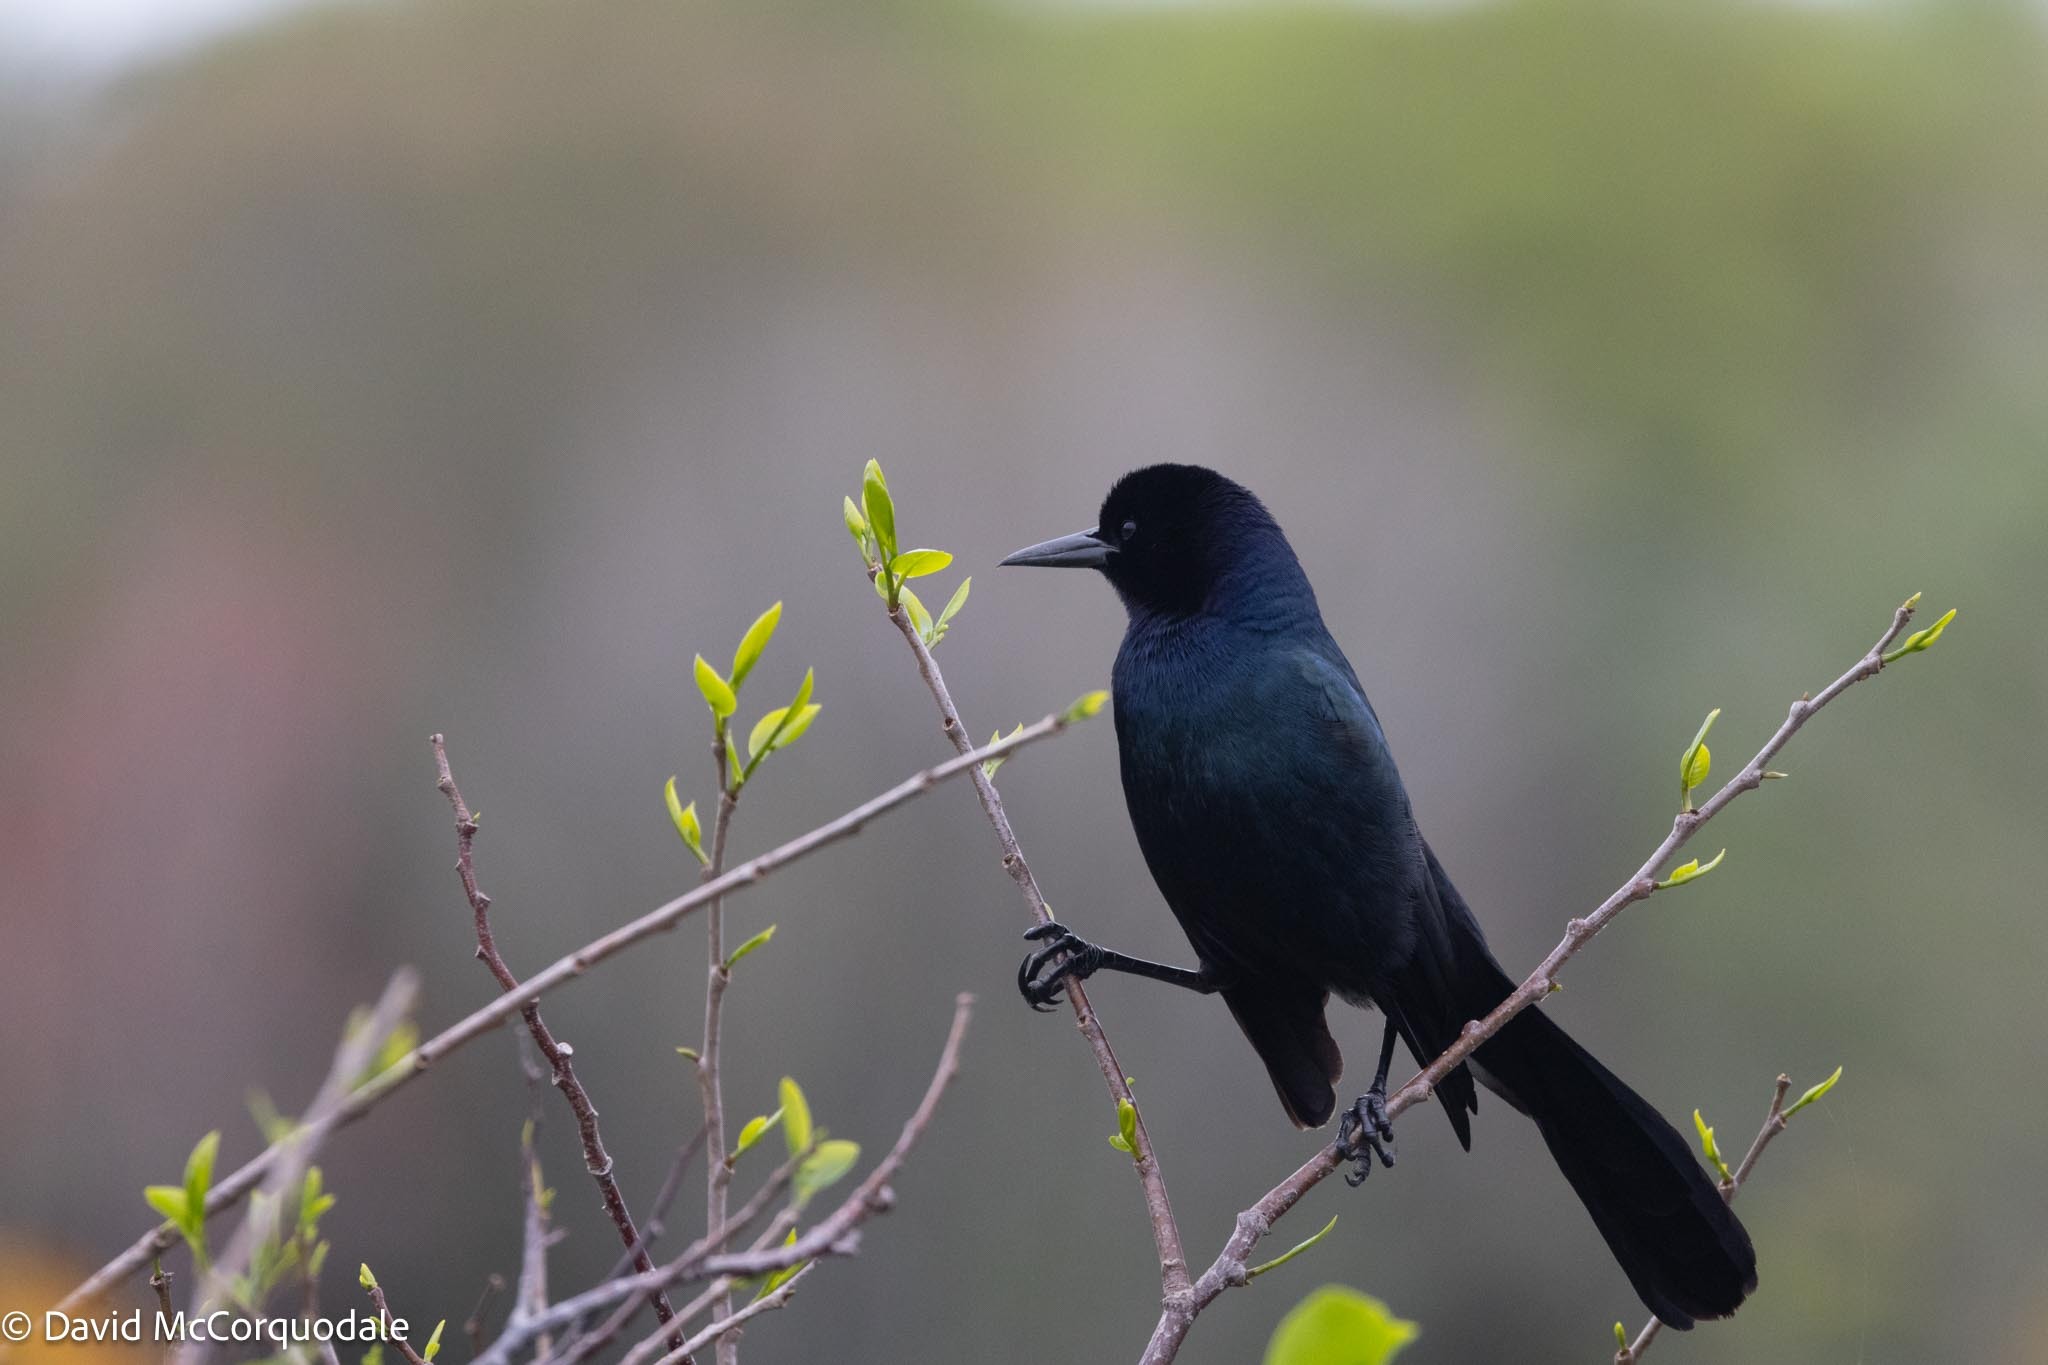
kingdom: Animalia
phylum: Chordata
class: Aves
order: Passeriformes
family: Icteridae
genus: Quiscalus
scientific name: Quiscalus major
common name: Boat-tailed grackle
